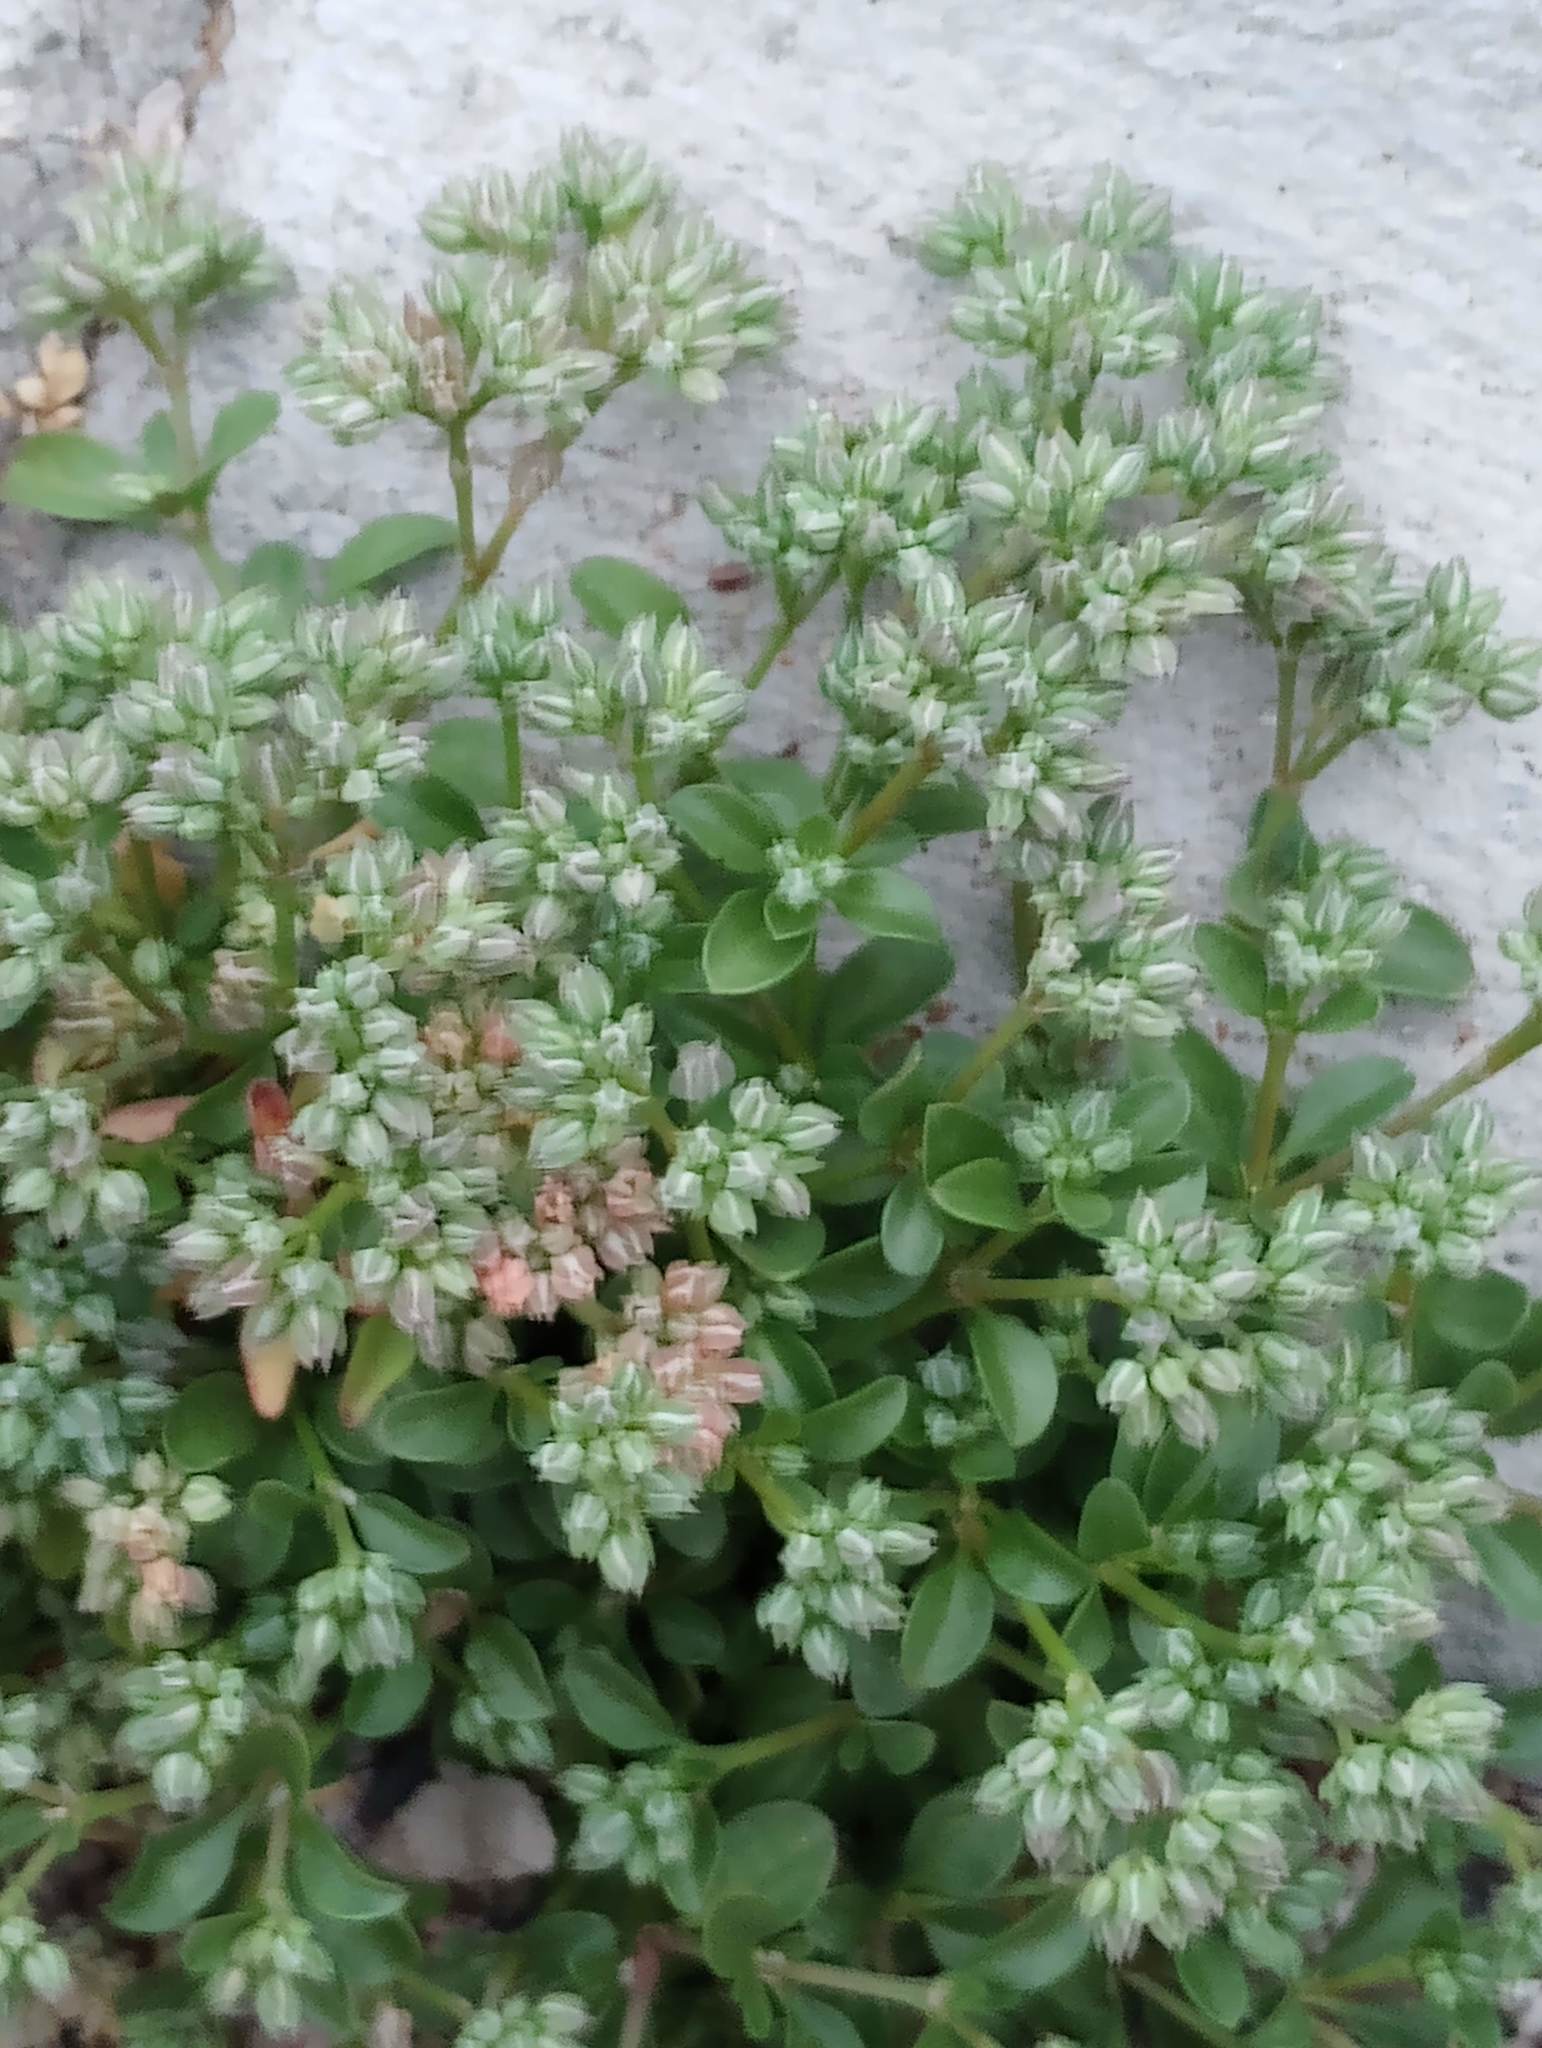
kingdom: Plantae
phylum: Tracheophyta
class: Magnoliopsida
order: Caryophyllales
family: Caryophyllaceae
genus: Polycarpon
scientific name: Polycarpon tetraphyllum
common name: Four-leaved all-seed
